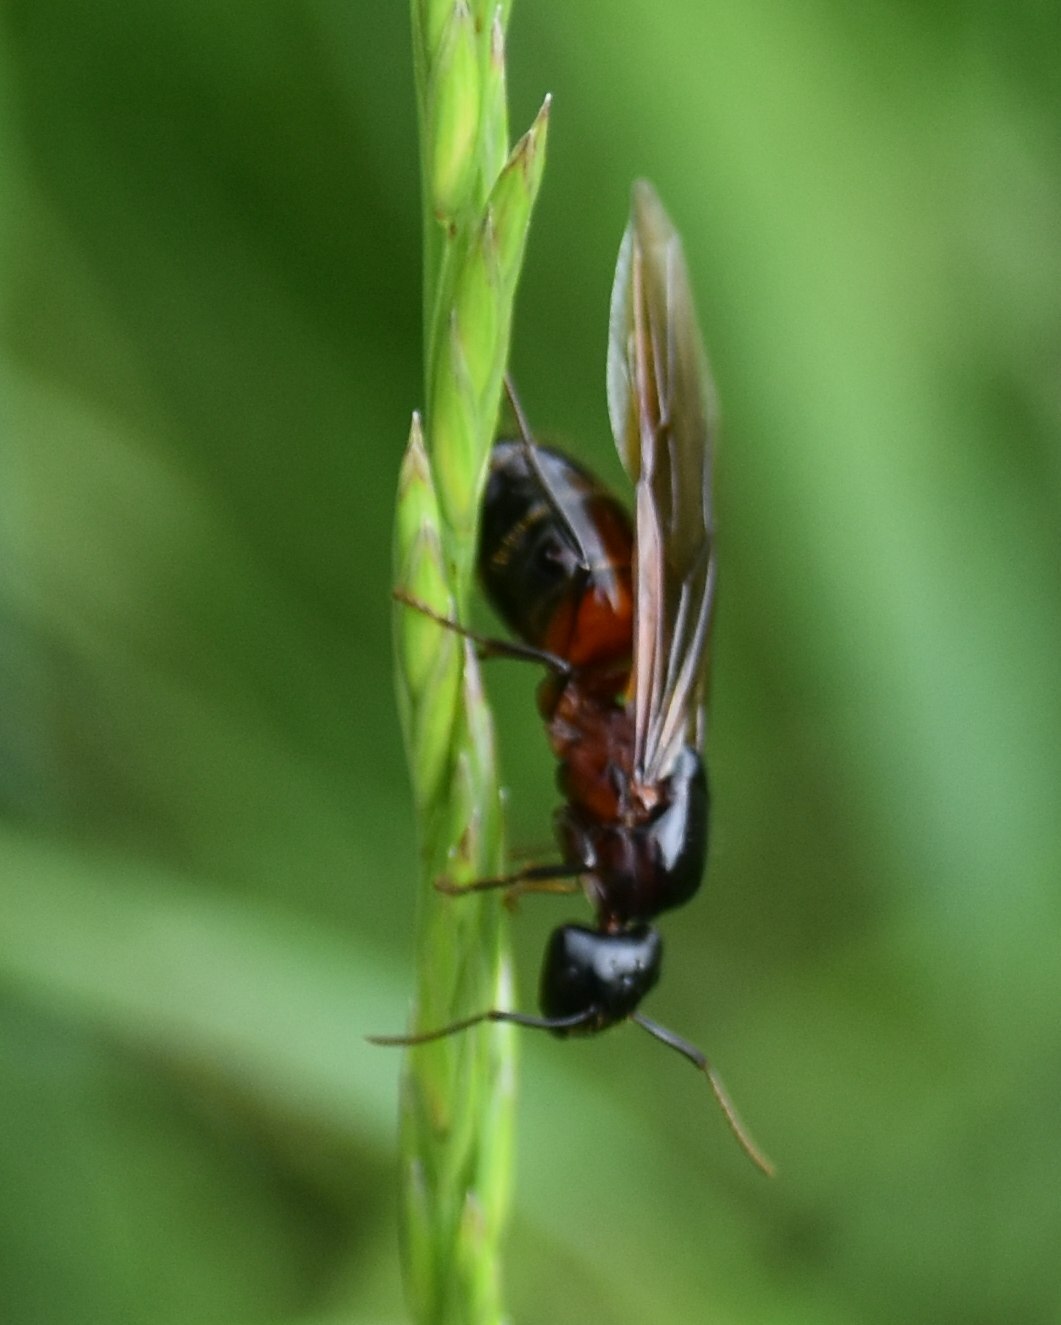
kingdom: Animalia
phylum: Arthropoda
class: Insecta
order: Hymenoptera
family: Formicidae
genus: Camponotus
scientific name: Camponotus ligniperdus
